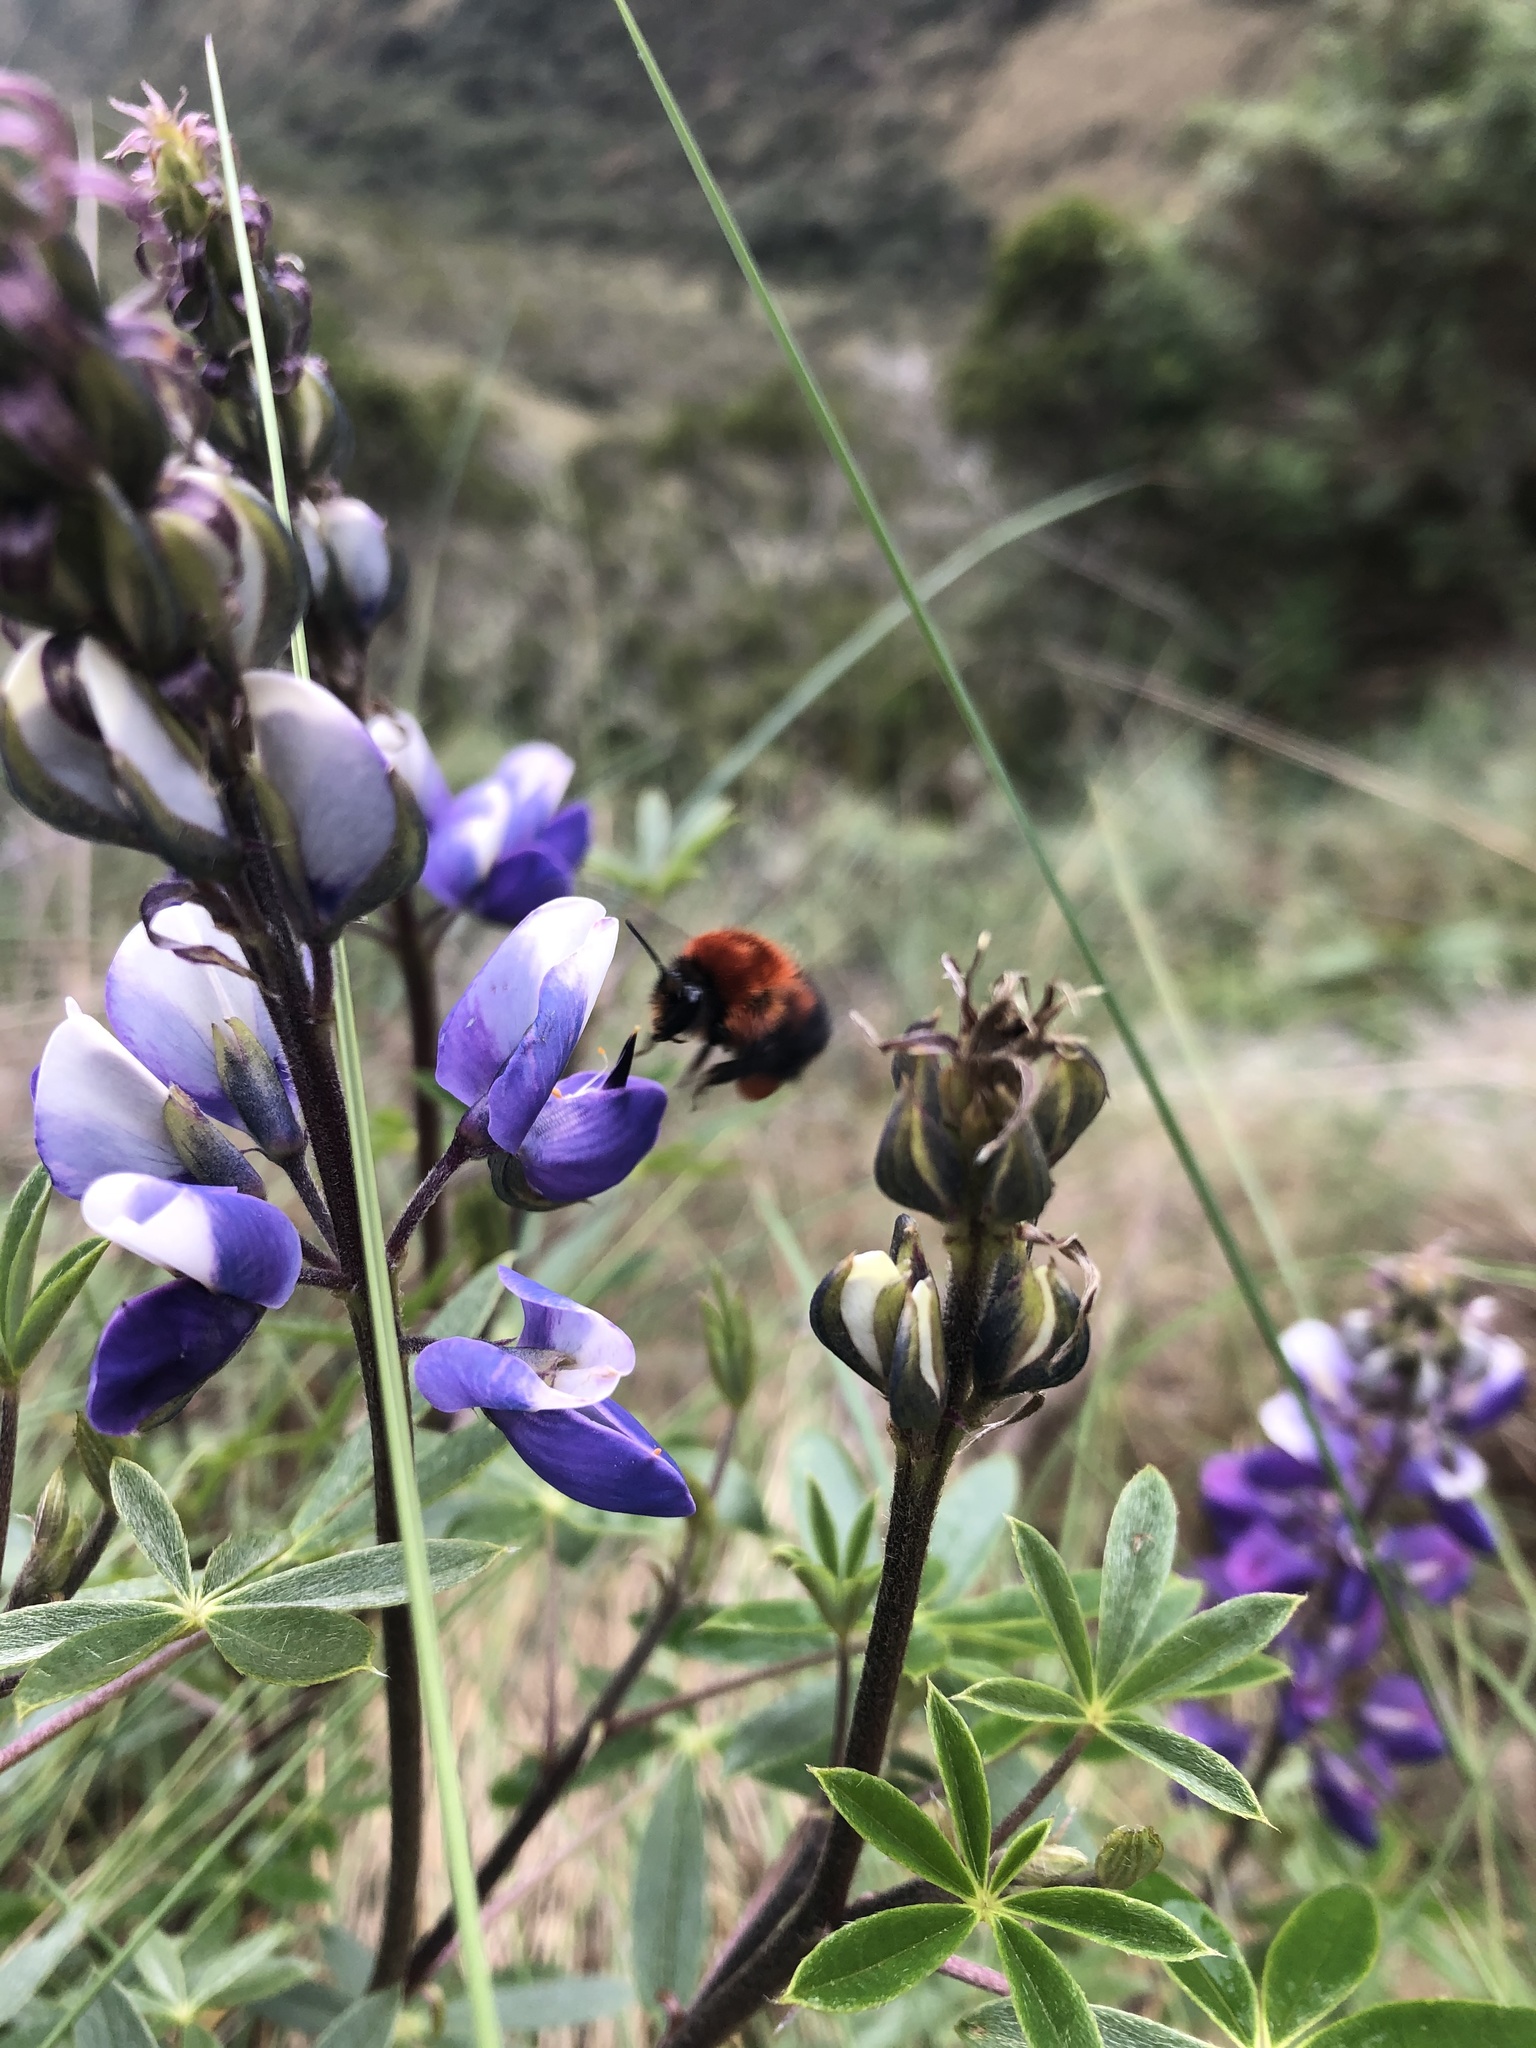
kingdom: Animalia
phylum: Arthropoda
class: Insecta
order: Hymenoptera
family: Apidae
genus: Bombus
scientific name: Bombus rubicundus
